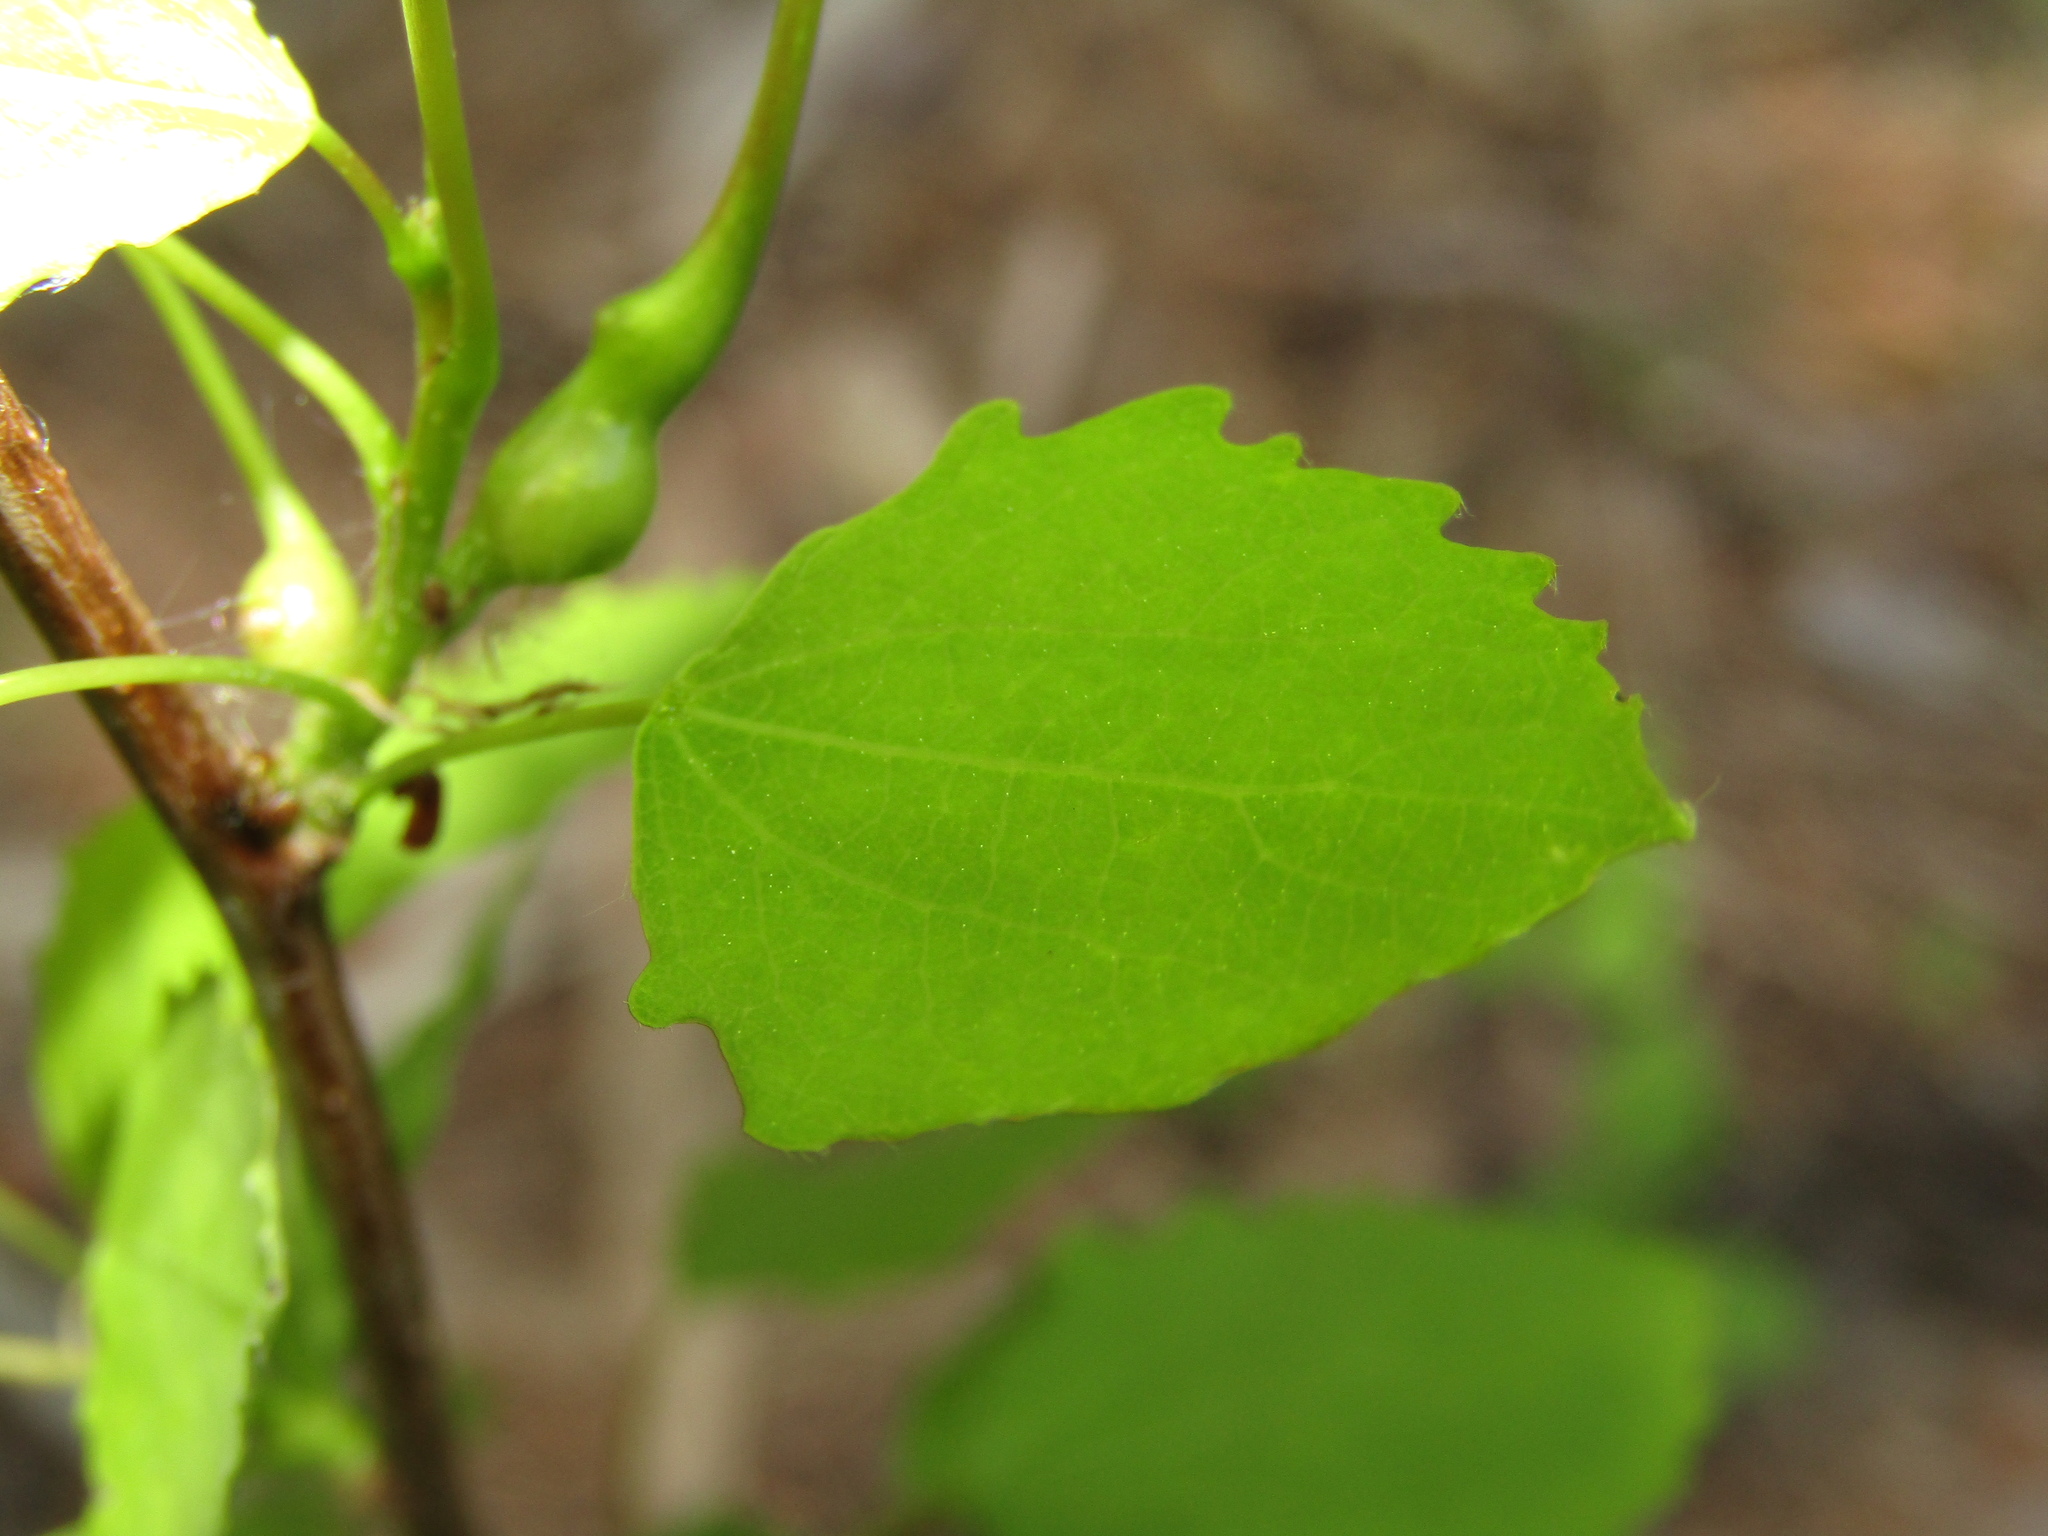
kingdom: Plantae
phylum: Tracheophyta
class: Magnoliopsida
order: Malpighiales
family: Salicaceae
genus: Populus
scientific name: Populus tremula
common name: European aspen
